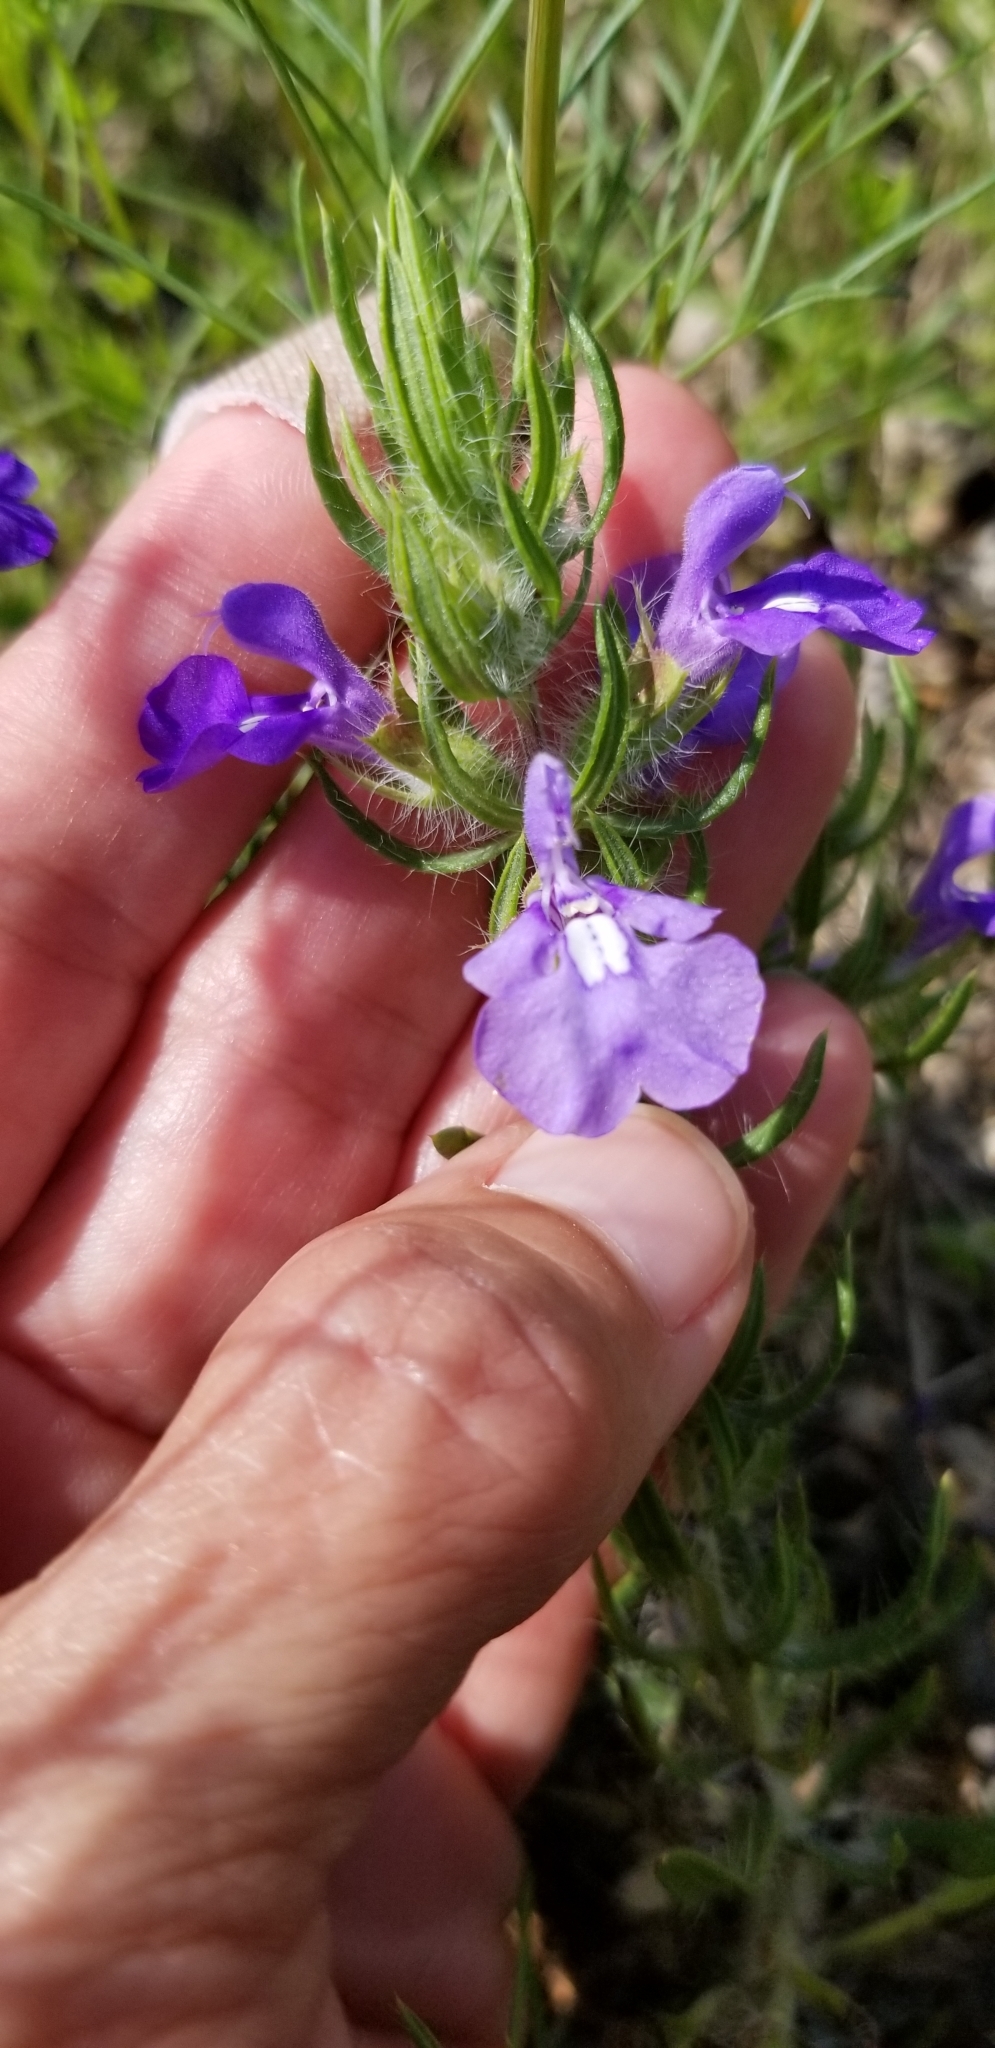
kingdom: Plantae
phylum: Tracheophyta
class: Magnoliopsida
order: Lamiales
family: Lamiaceae
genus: Salvia
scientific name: Salvia texana
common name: Texas sage
